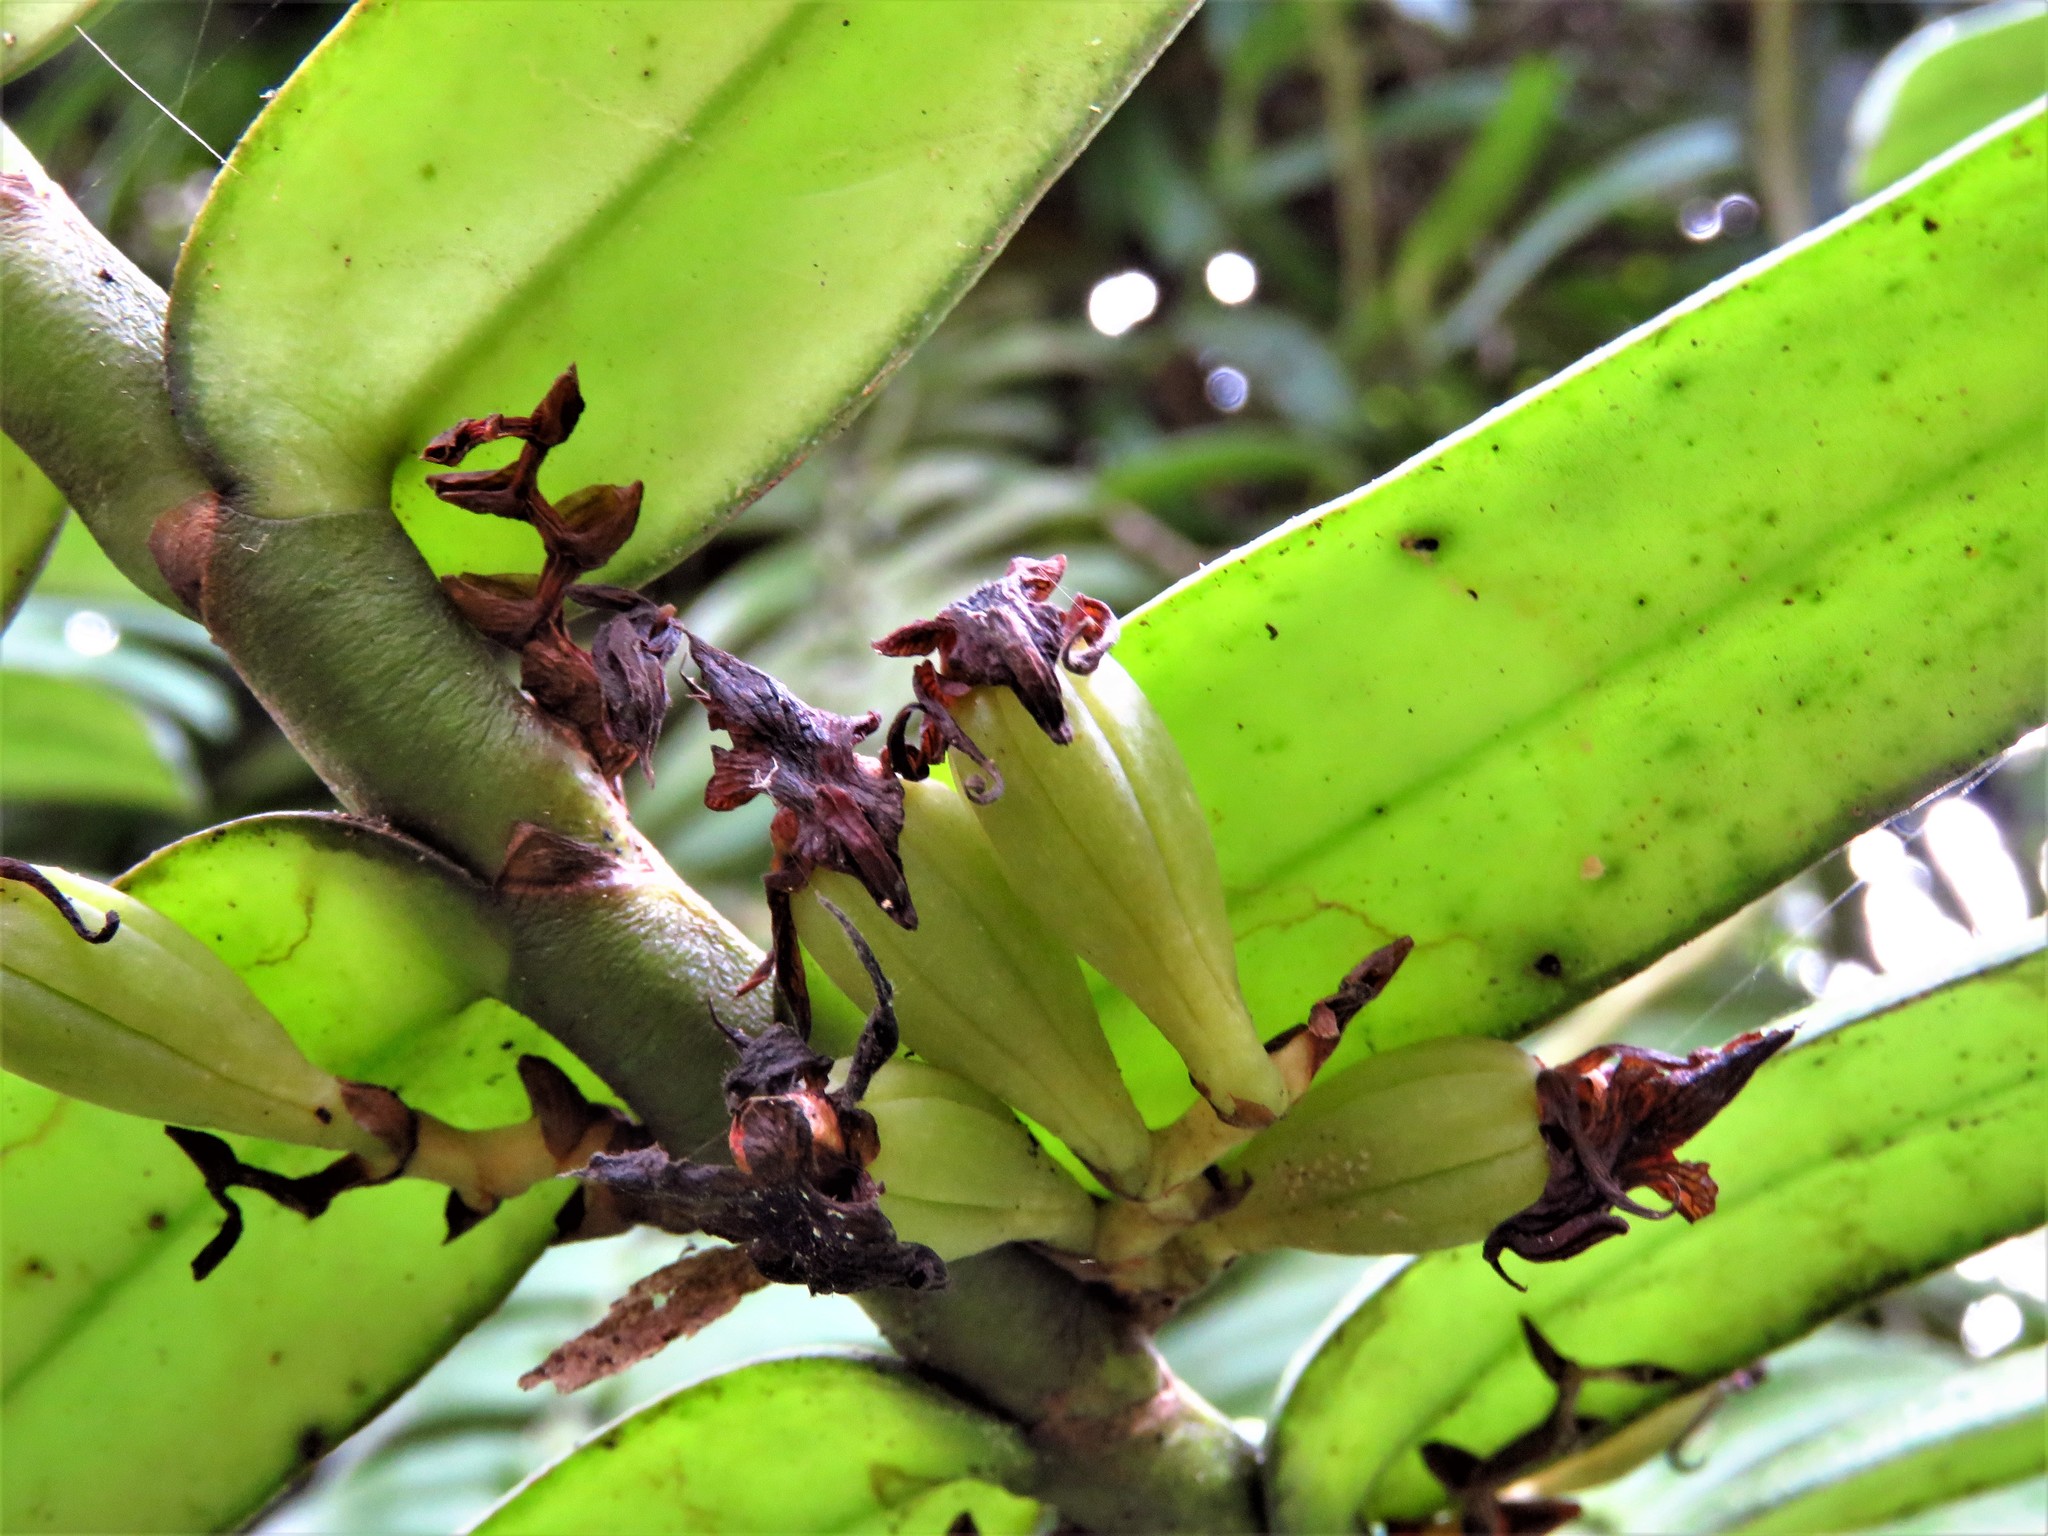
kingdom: Plantae
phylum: Tracheophyta
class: Liliopsida
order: Asparagales
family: Orchidaceae
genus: Calyptrochilum
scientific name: Calyptrochilum christyanum
